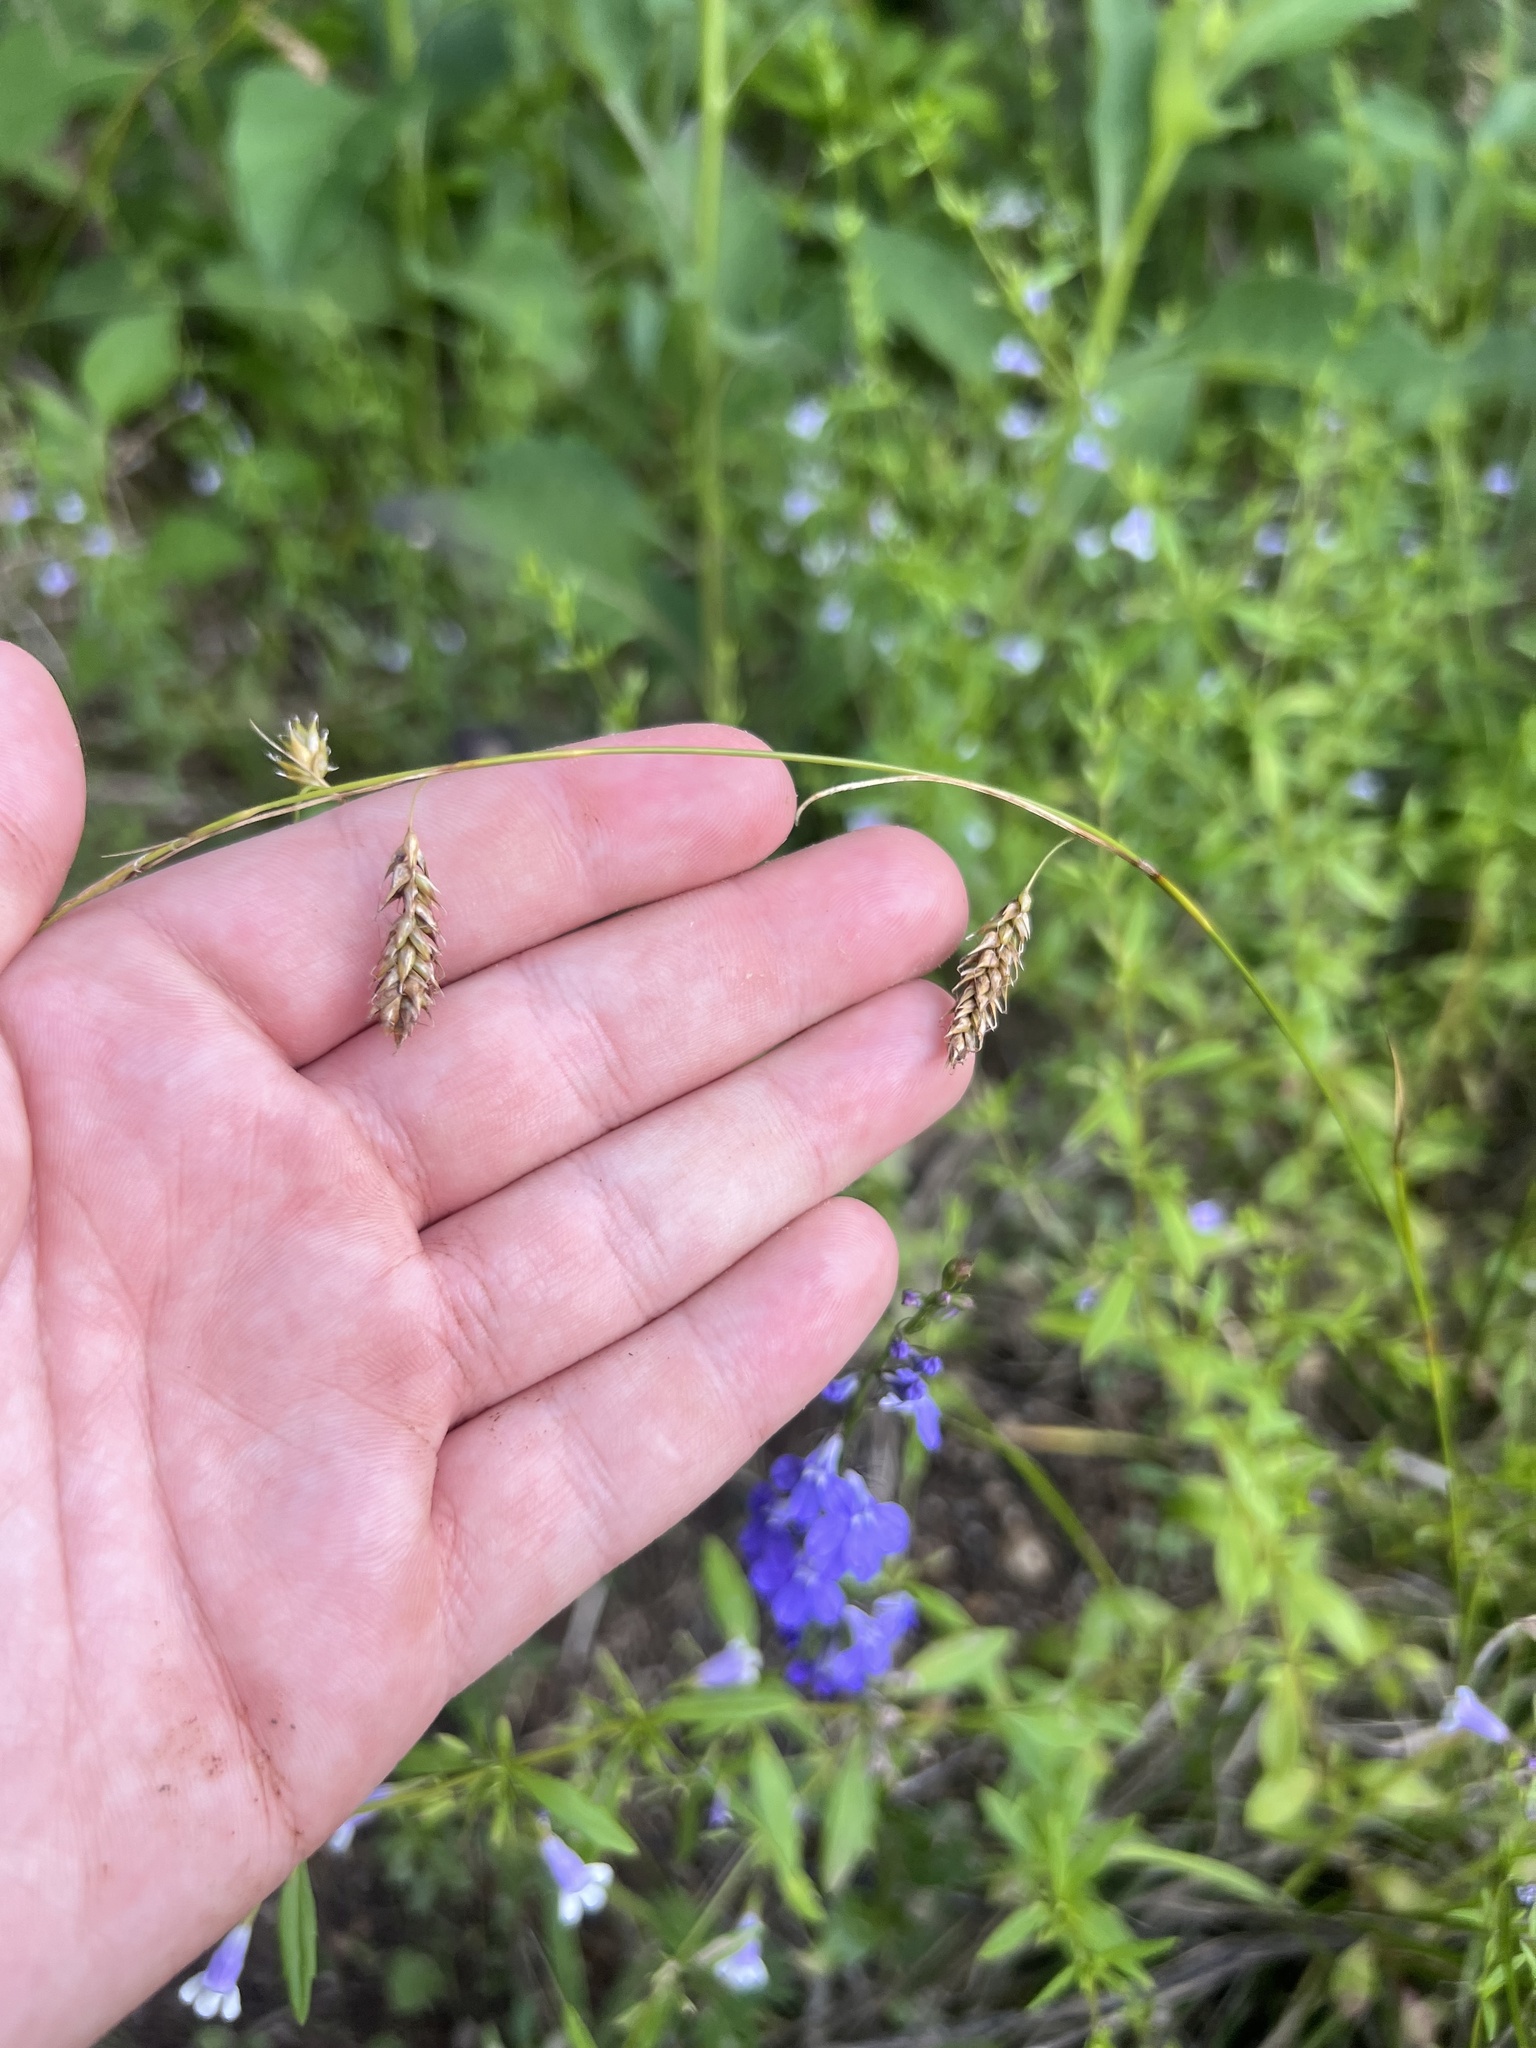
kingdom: Plantae
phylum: Tracheophyta
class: Liliopsida
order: Poales
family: Cyperaceae
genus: Carex
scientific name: Carex cherokeensis
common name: Cherokee sedge
